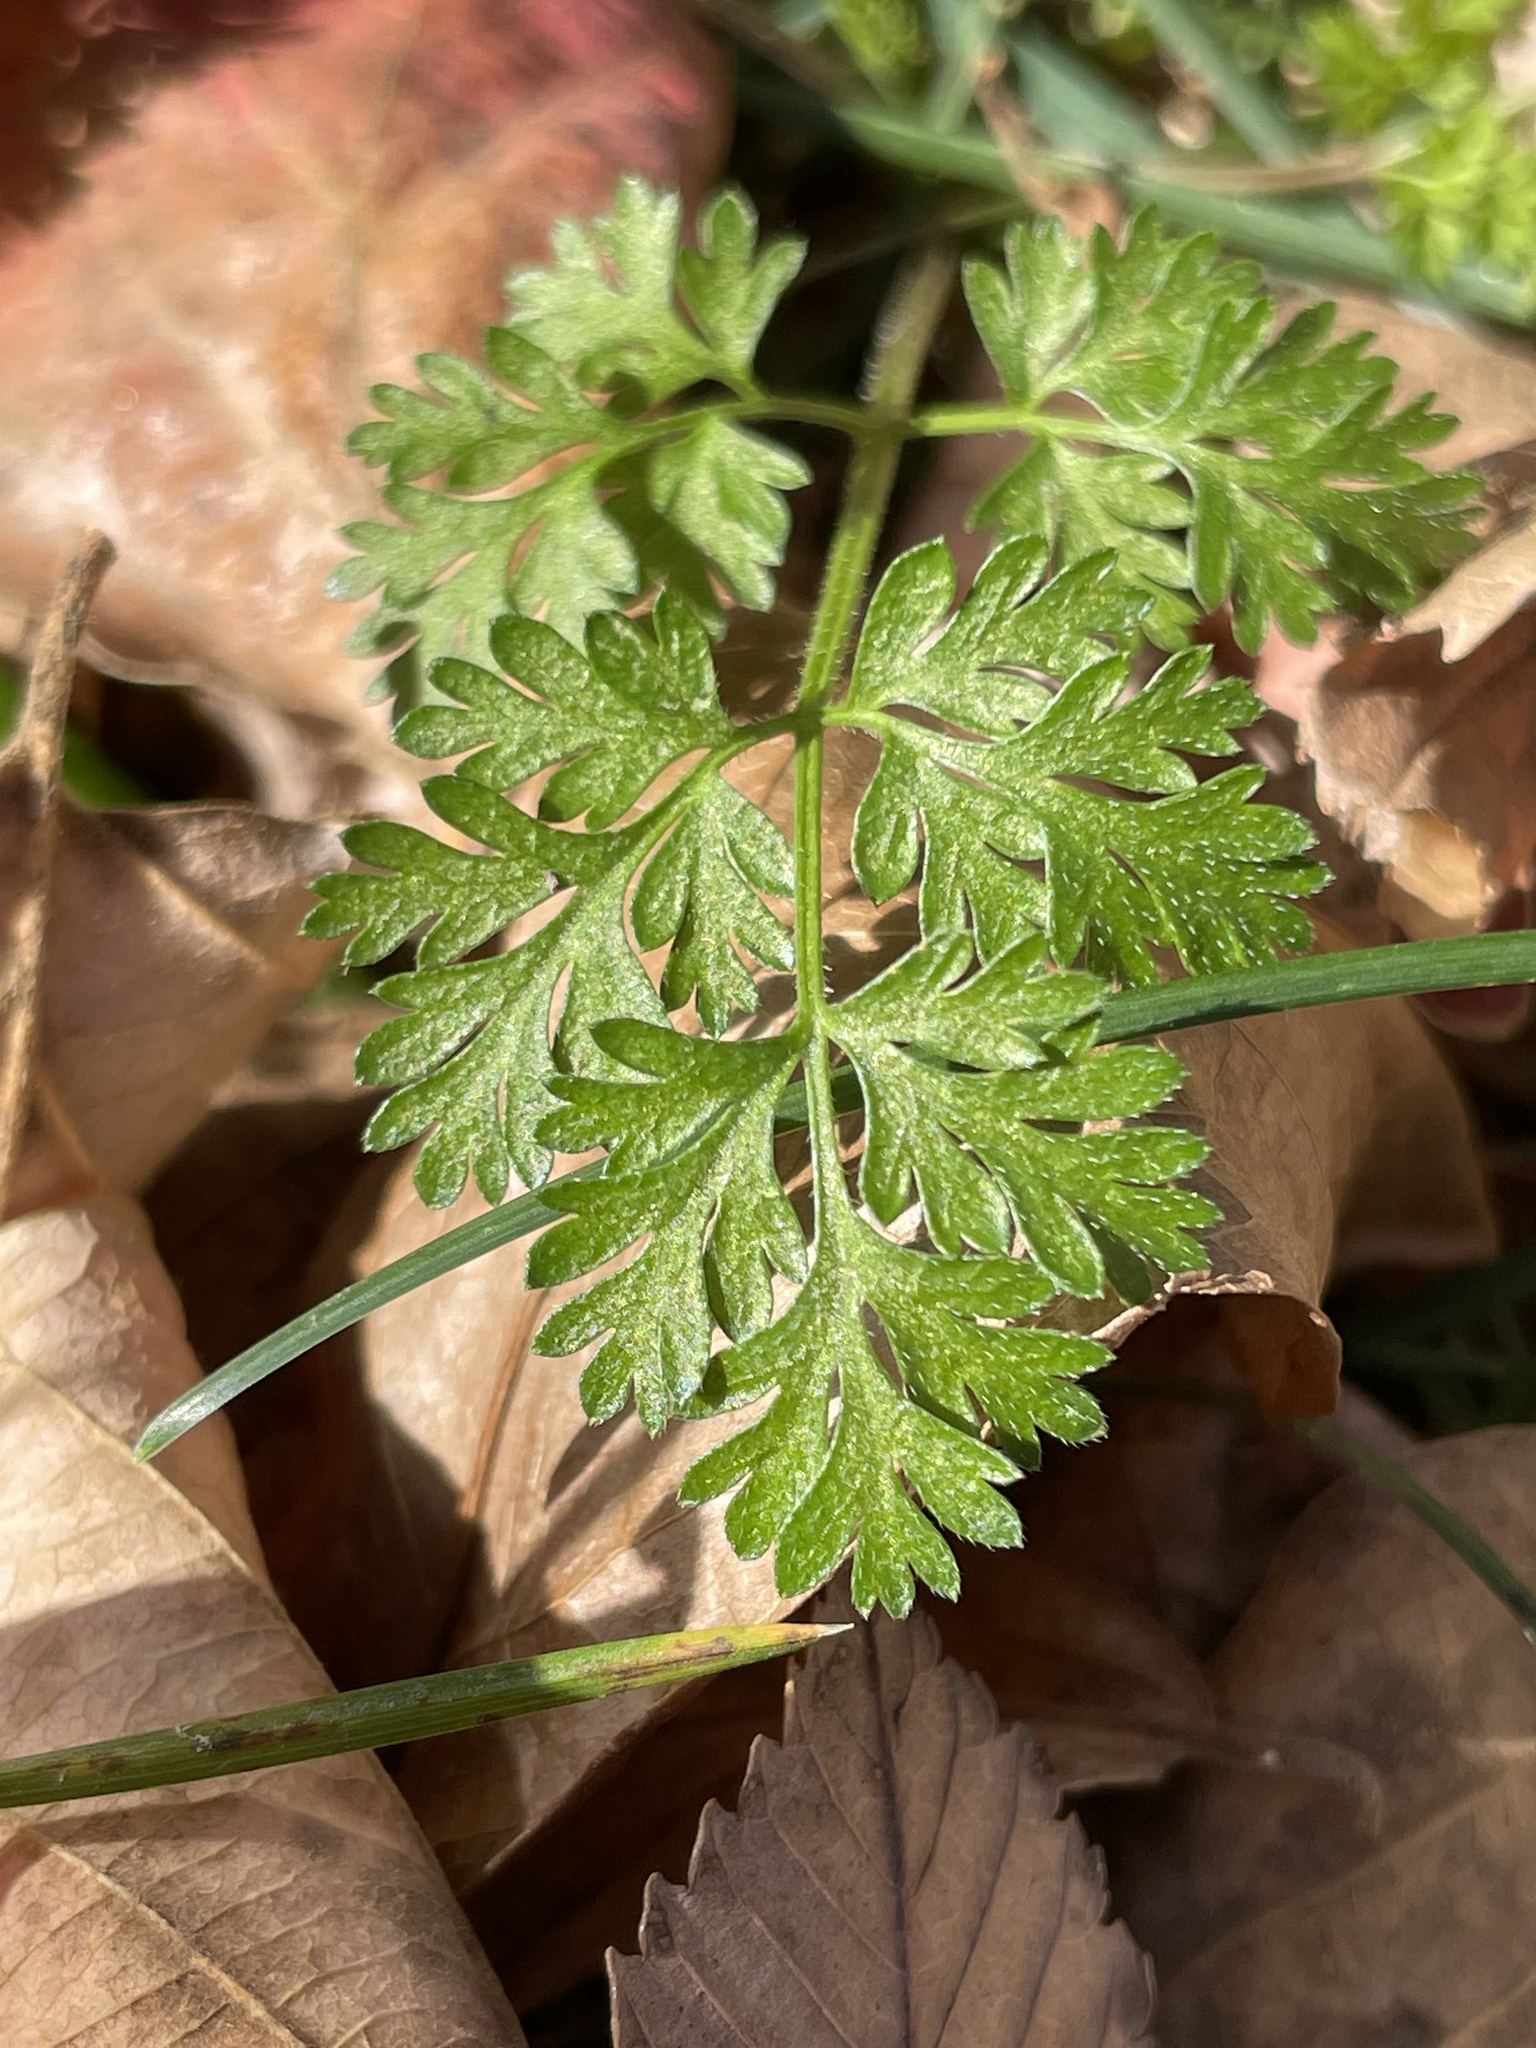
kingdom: Plantae
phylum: Tracheophyta
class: Magnoliopsida
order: Apiales
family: Apiaceae
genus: Chaerophyllum
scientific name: Chaerophyllum procumbens
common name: Spreading chervil
